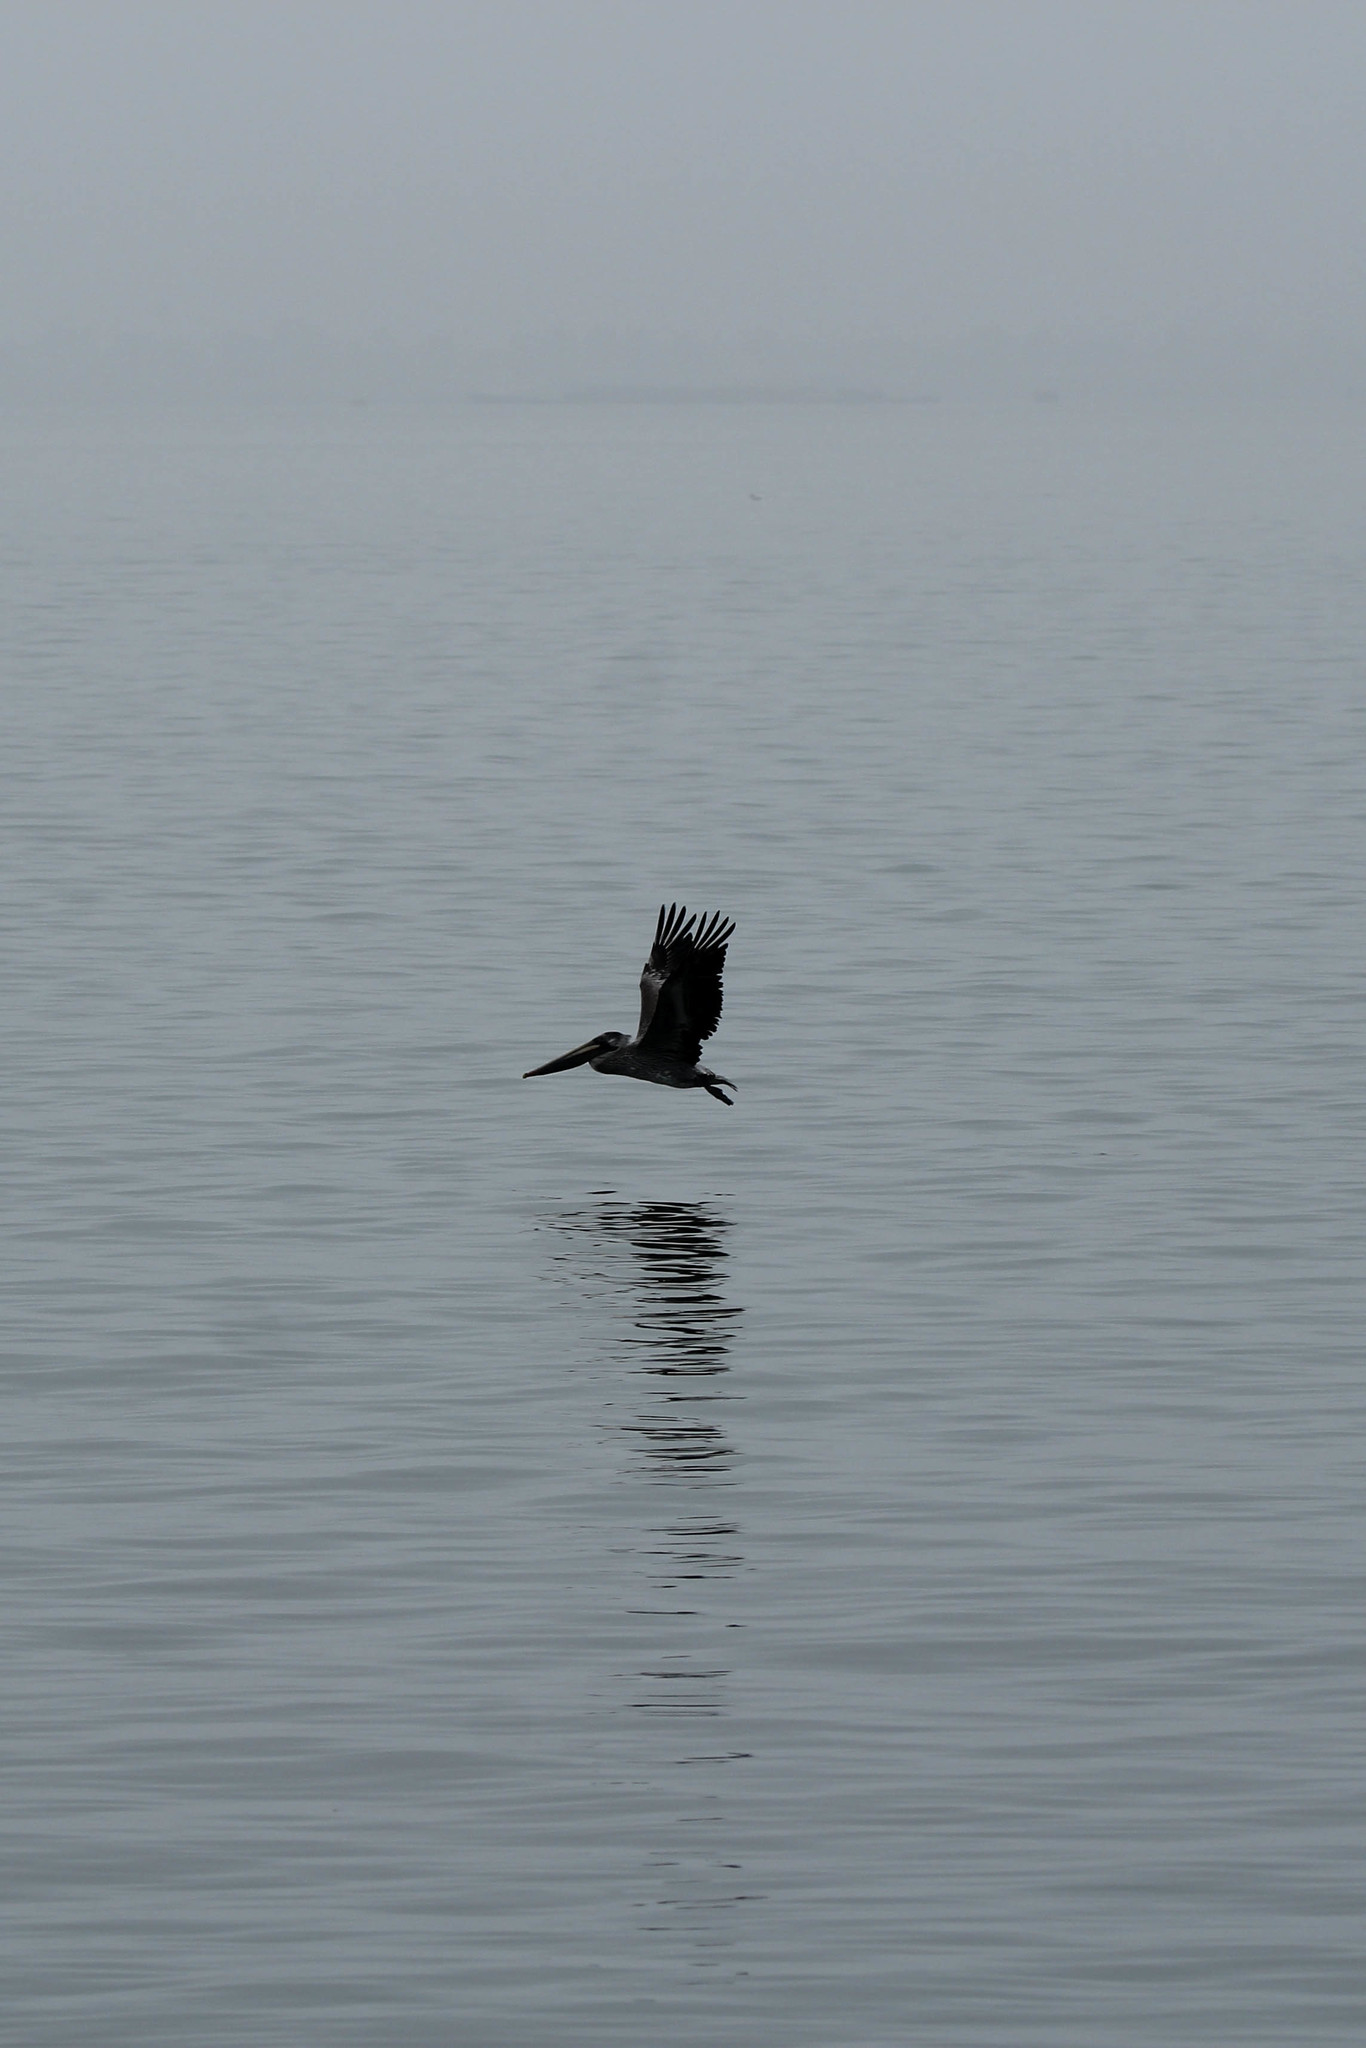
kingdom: Animalia
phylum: Chordata
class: Aves
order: Pelecaniformes
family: Pelecanidae
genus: Pelecanus
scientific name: Pelecanus occidentalis
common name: Brown pelican
